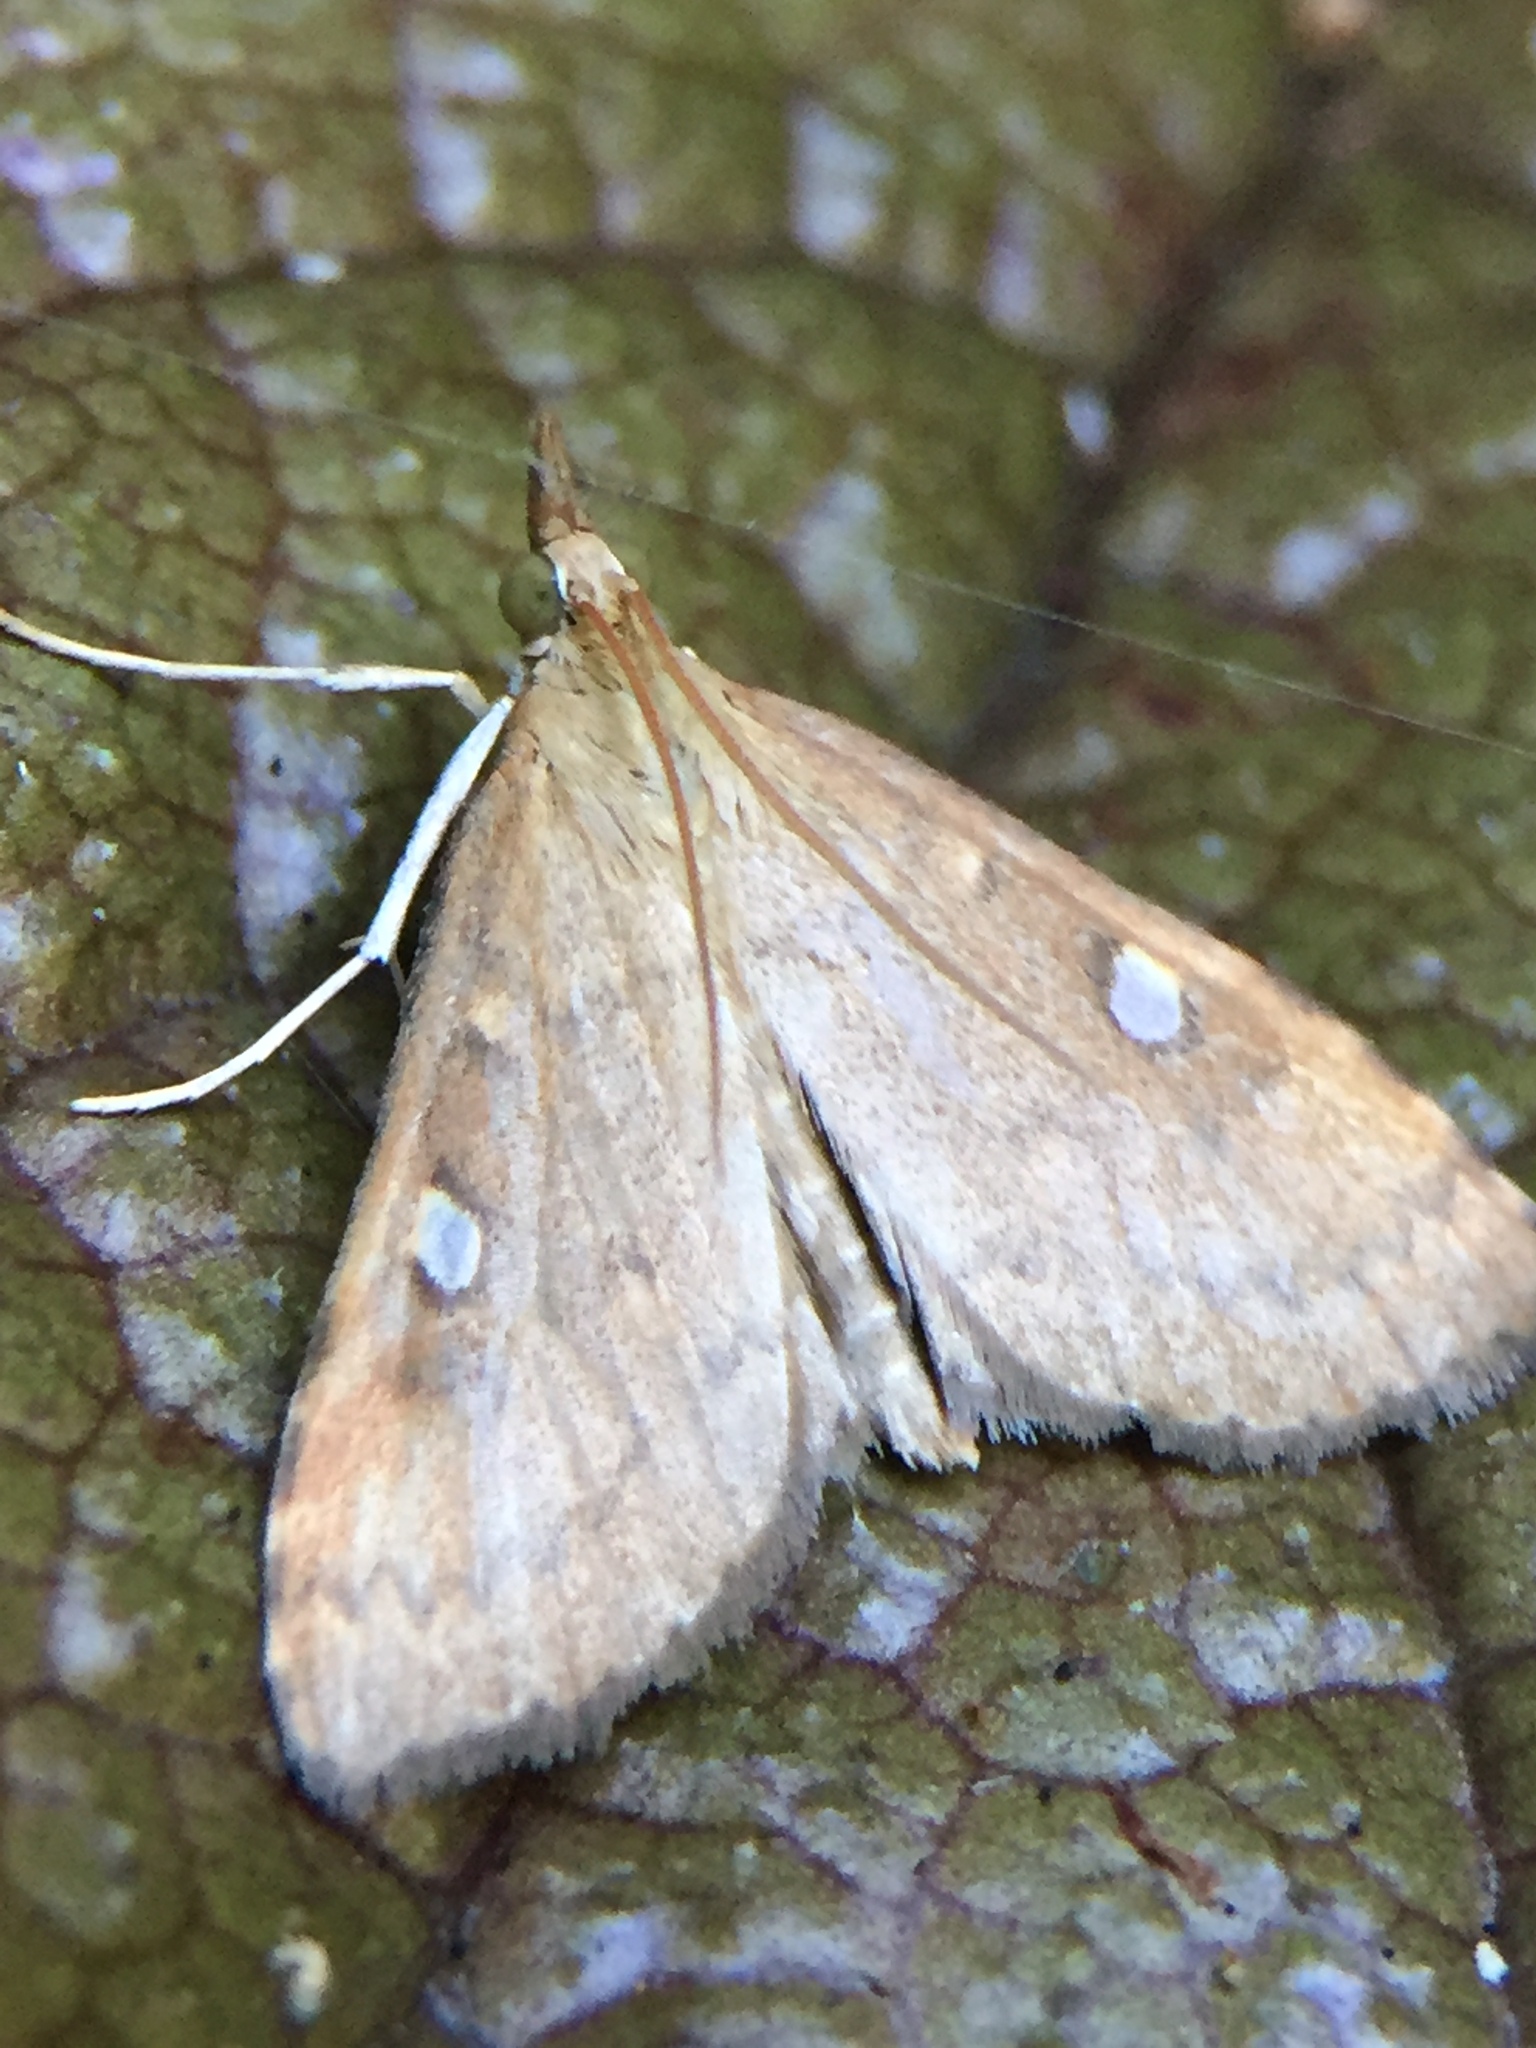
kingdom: Animalia
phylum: Arthropoda
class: Insecta
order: Lepidoptera
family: Crambidae
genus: Udea
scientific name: Udea Mnesictena marmarina
